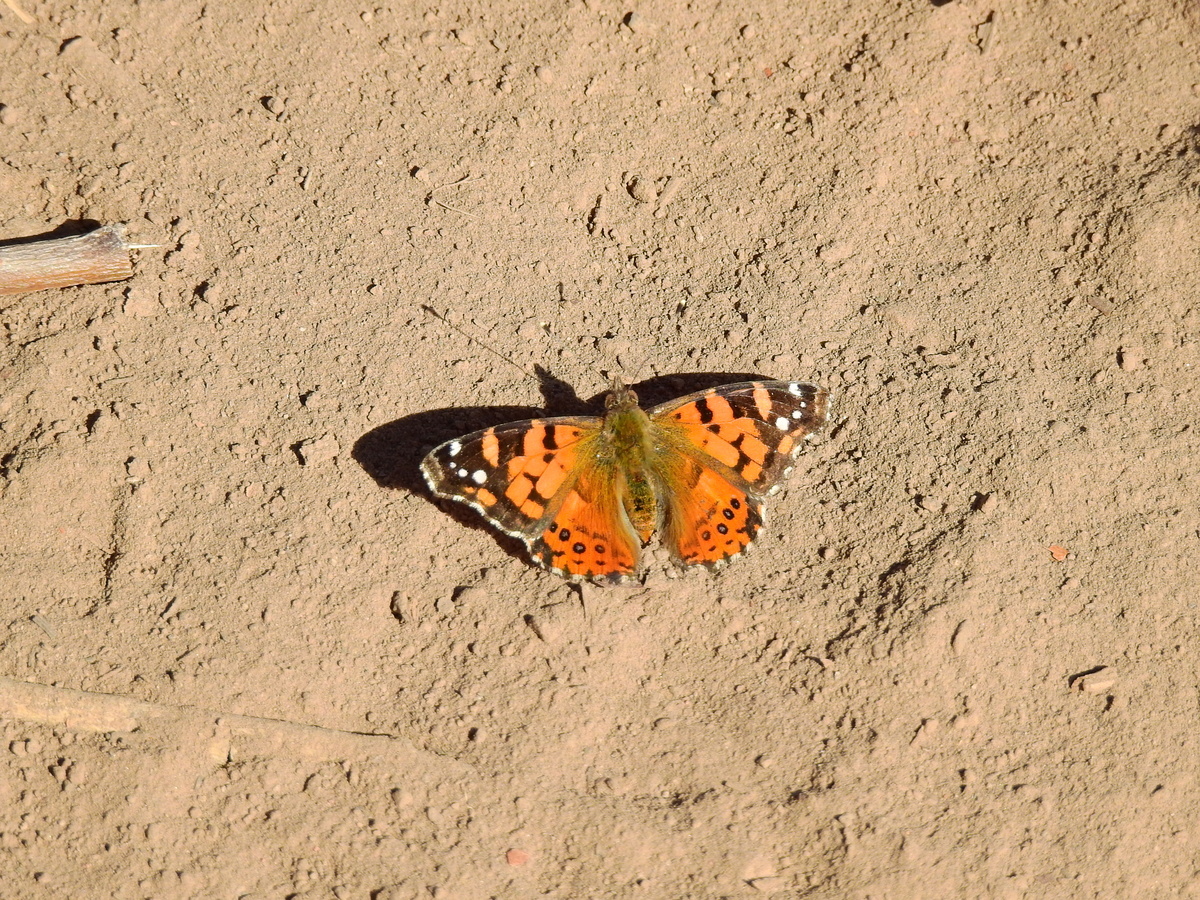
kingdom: Animalia
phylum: Arthropoda
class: Insecta
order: Lepidoptera
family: Nymphalidae
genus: Vanessa
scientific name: Vanessa carye
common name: Subtropical lady
